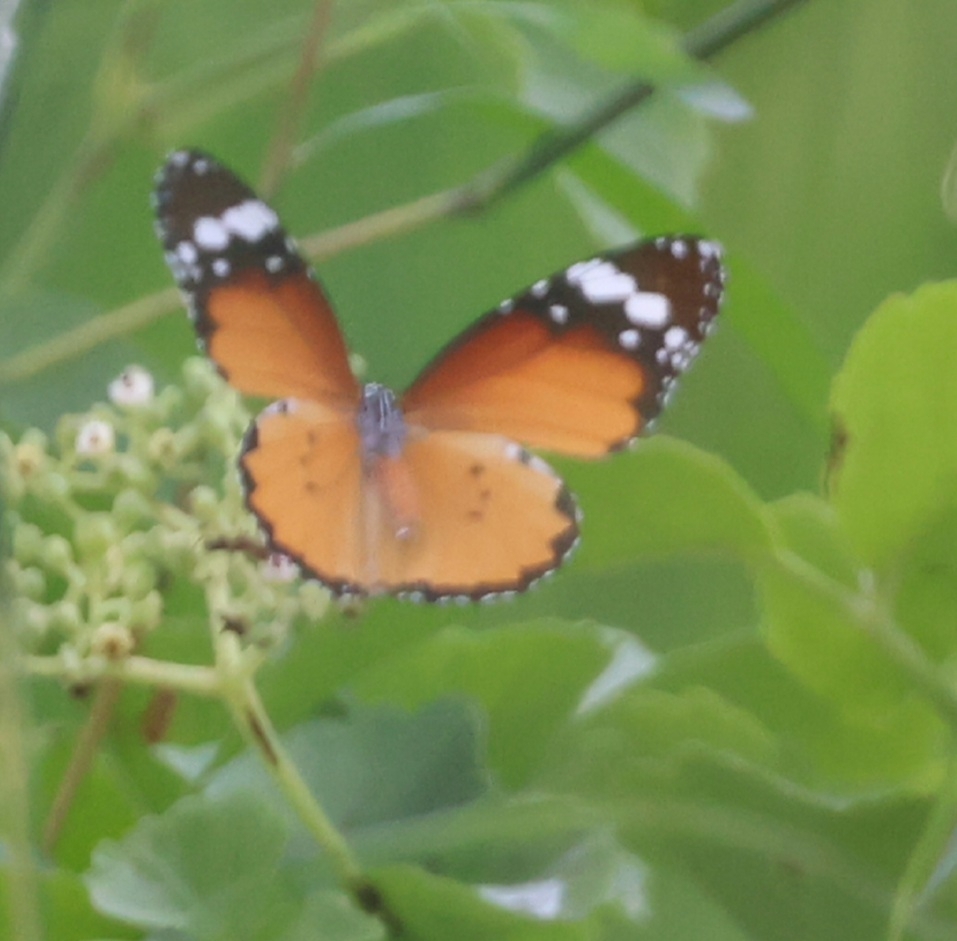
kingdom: Animalia
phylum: Arthropoda
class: Insecta
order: Lepidoptera
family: Nymphalidae
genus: Danaus
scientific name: Danaus chrysippus
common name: Plain tiger
